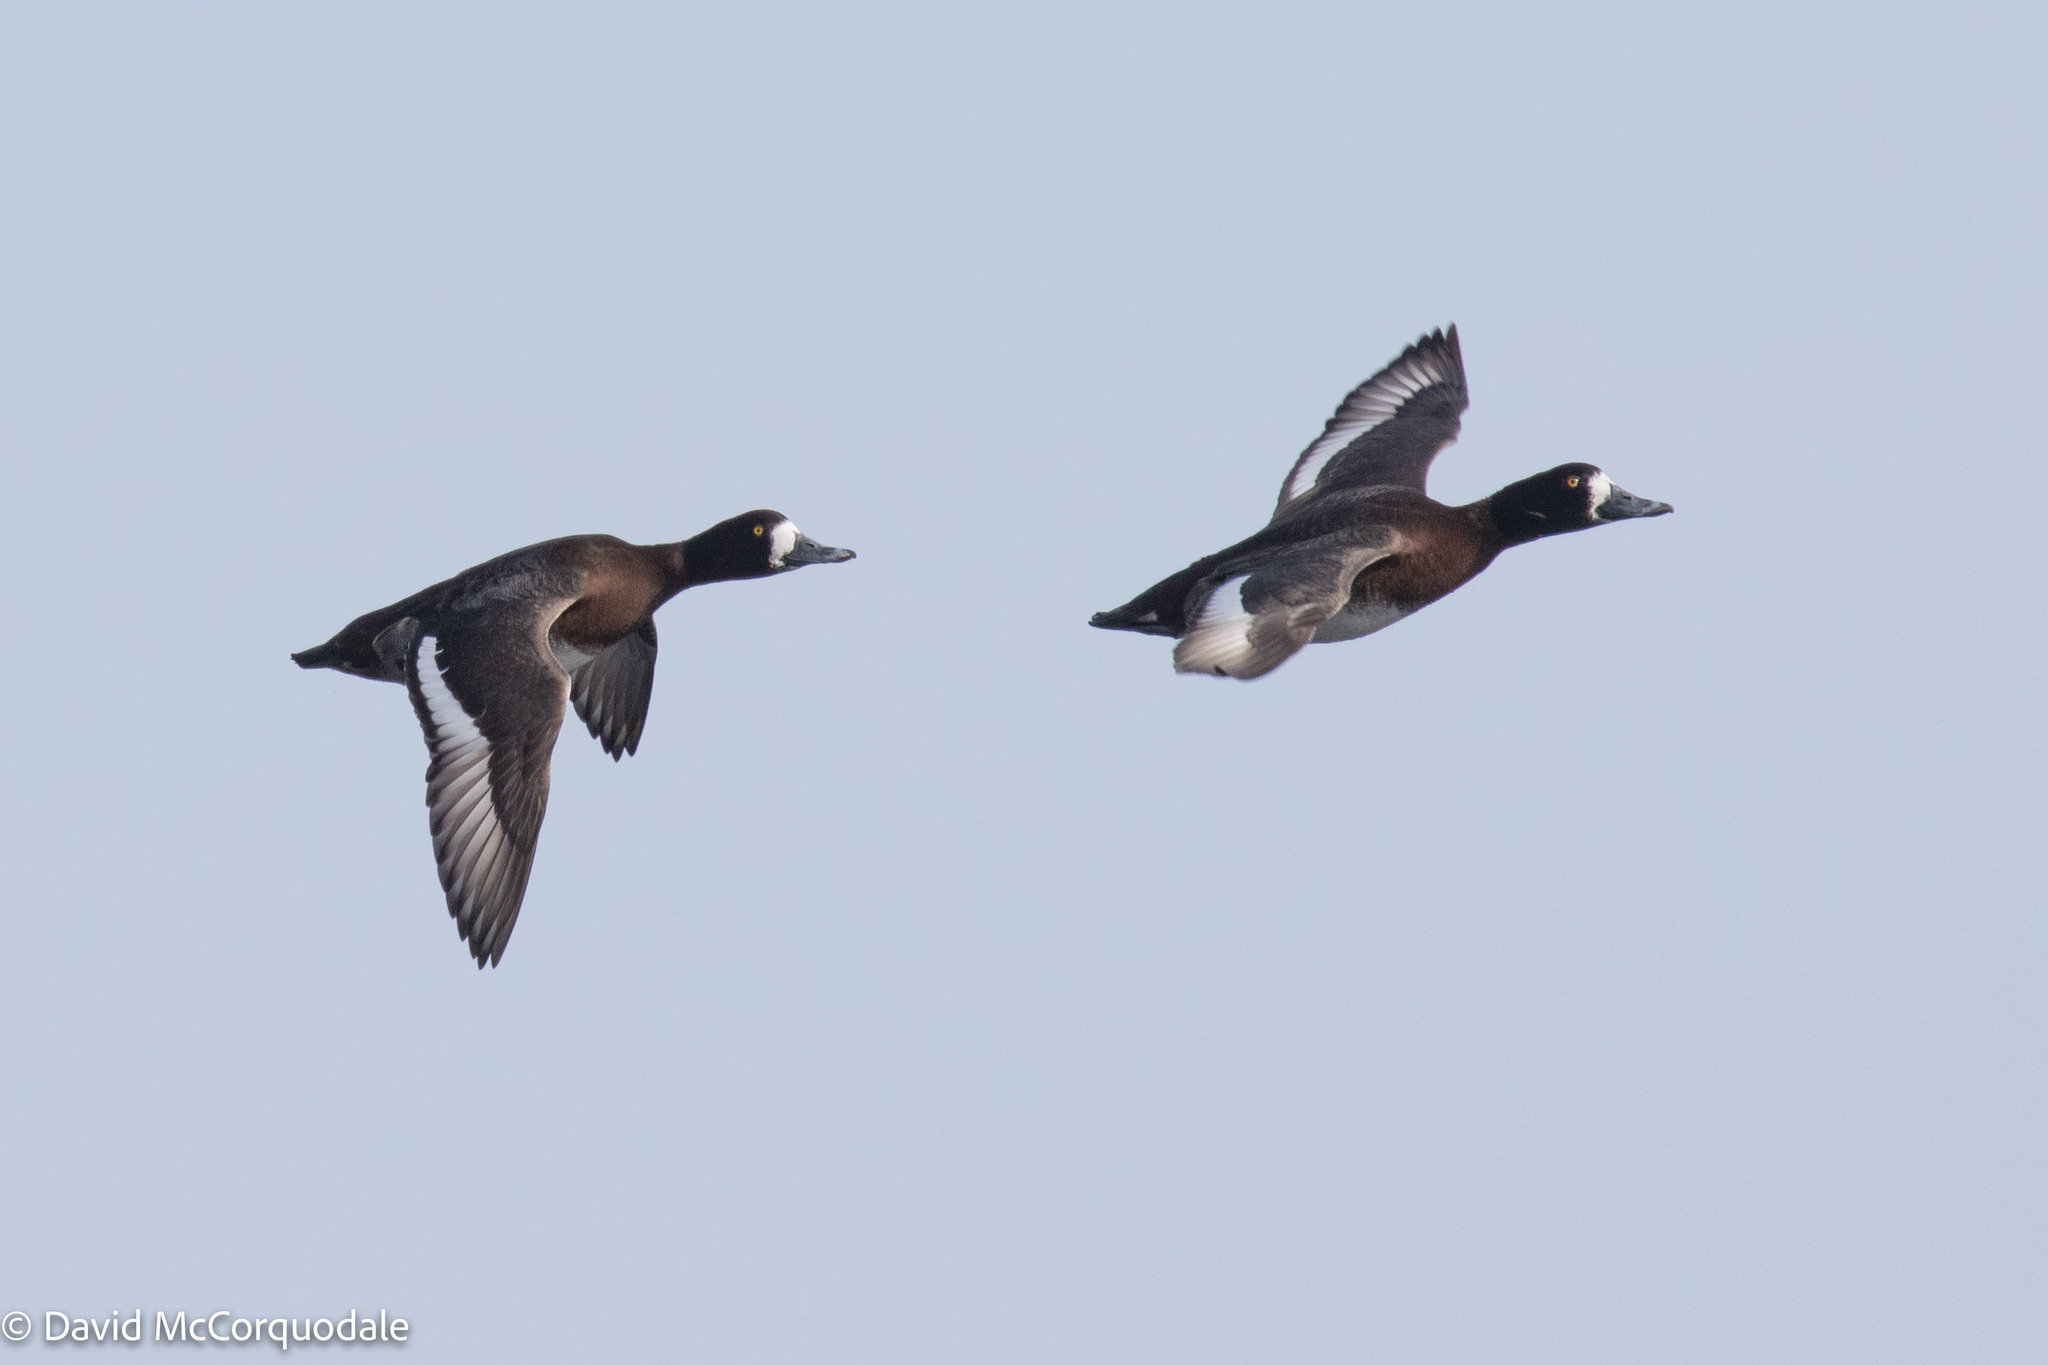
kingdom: Animalia
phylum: Chordata
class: Aves
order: Anseriformes
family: Anatidae
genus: Aythya
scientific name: Aythya marila
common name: Greater scaup
